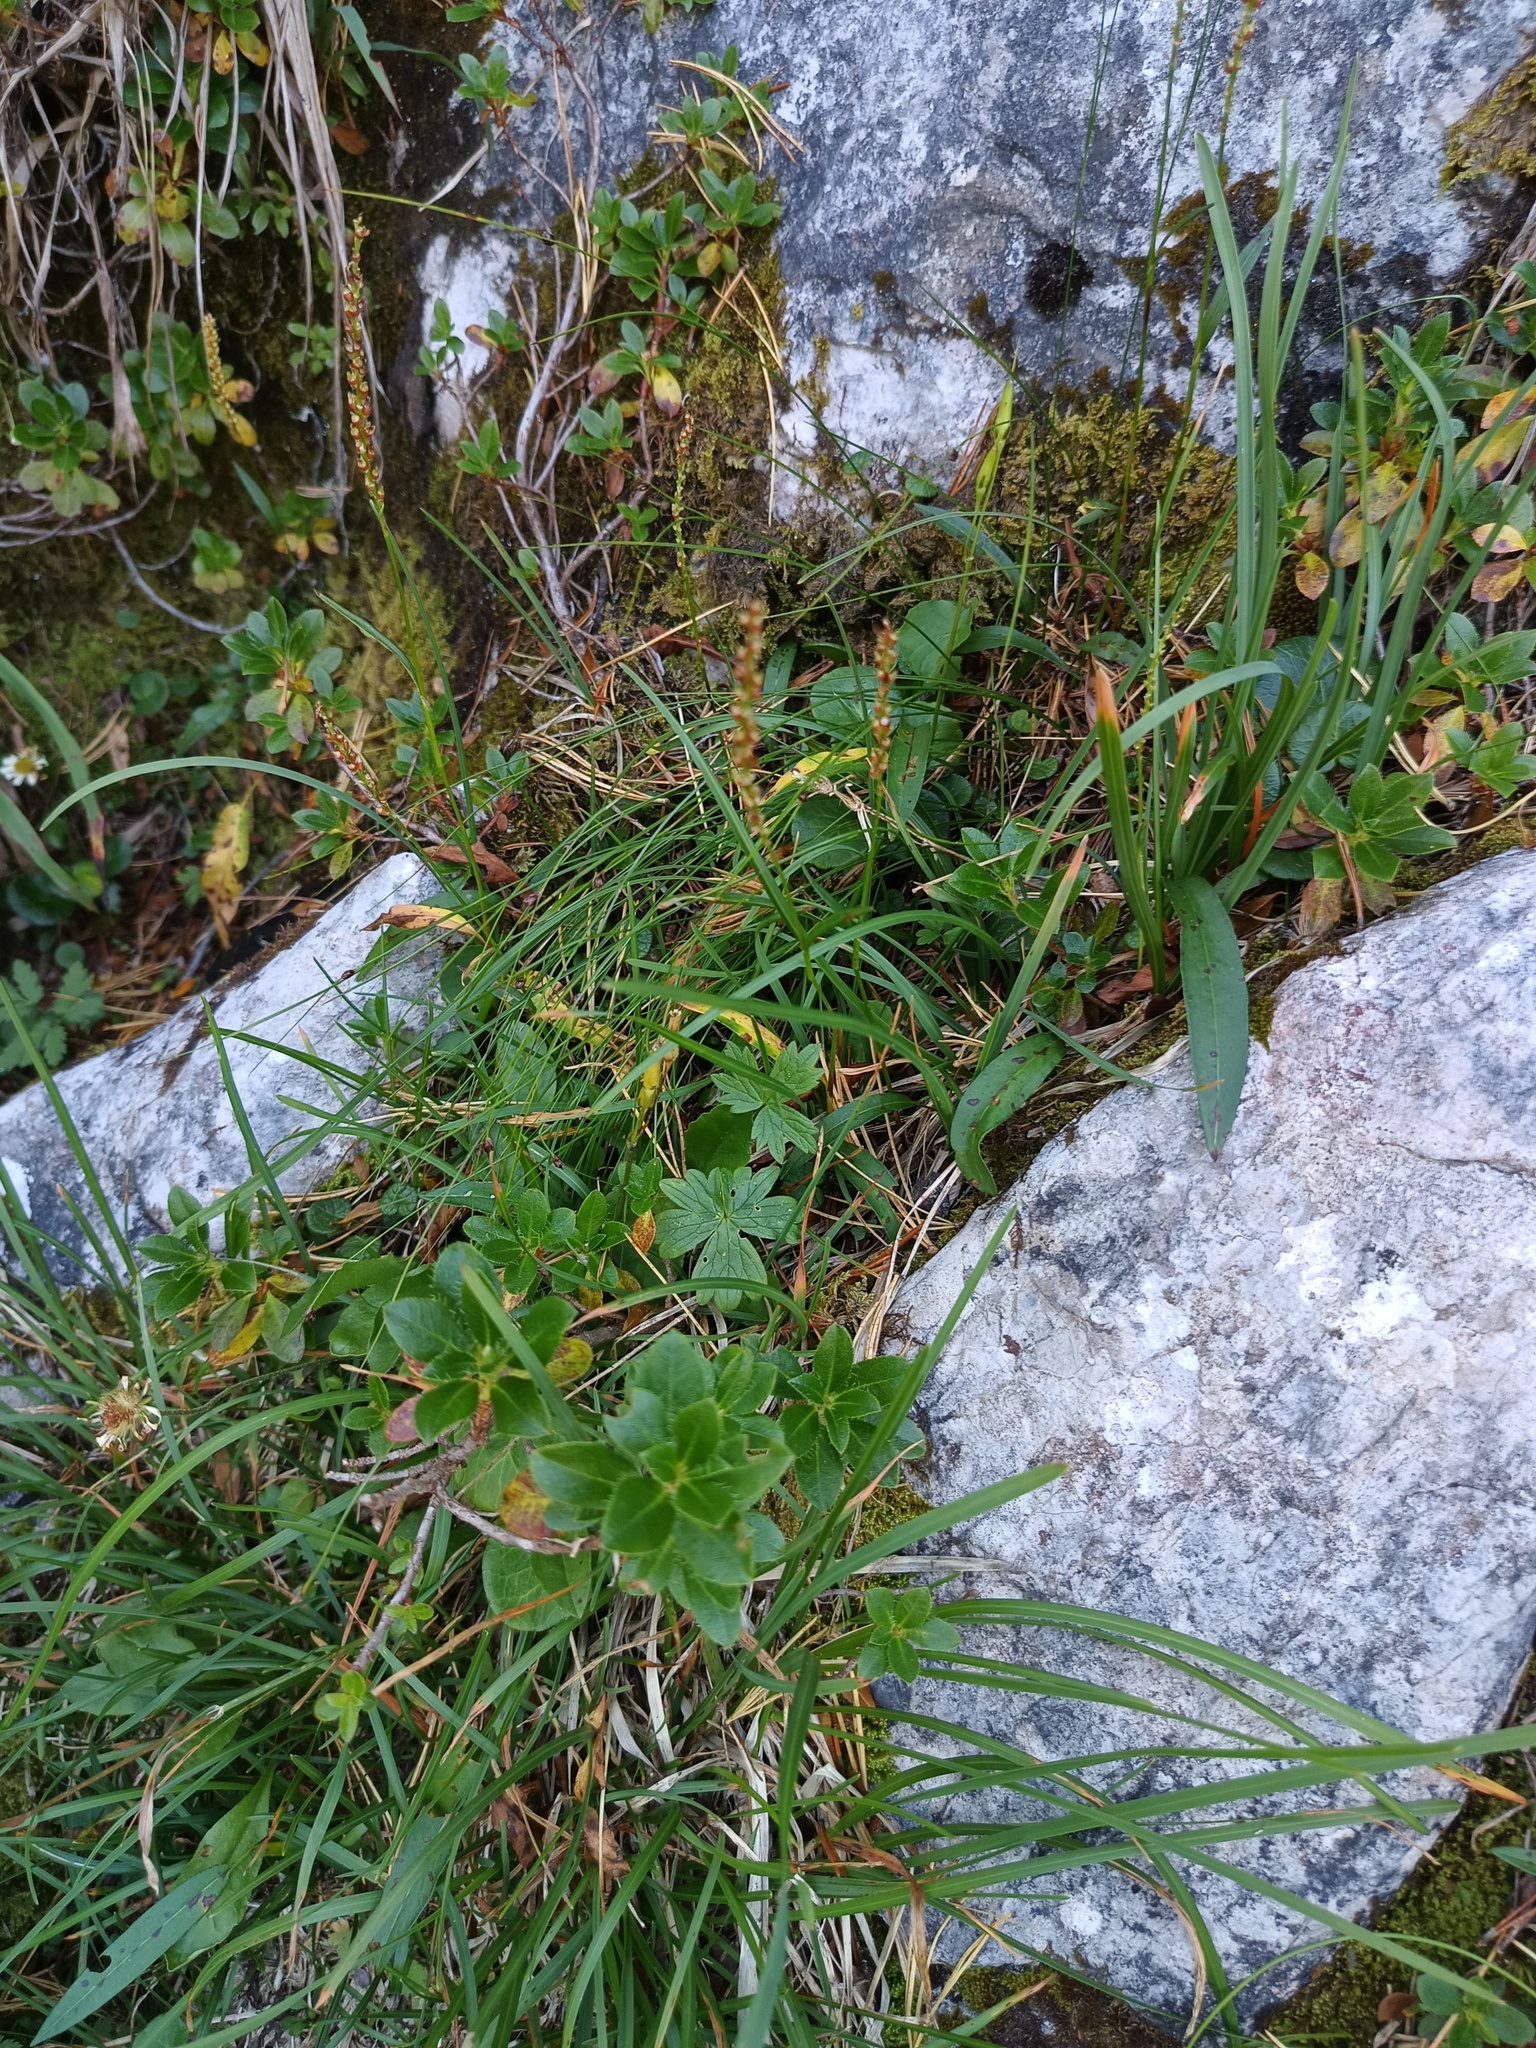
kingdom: Plantae
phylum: Tracheophyta
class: Magnoliopsida
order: Caryophyllales
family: Polygonaceae
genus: Bistorta
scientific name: Bistorta vivipara
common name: Alpine bistort
